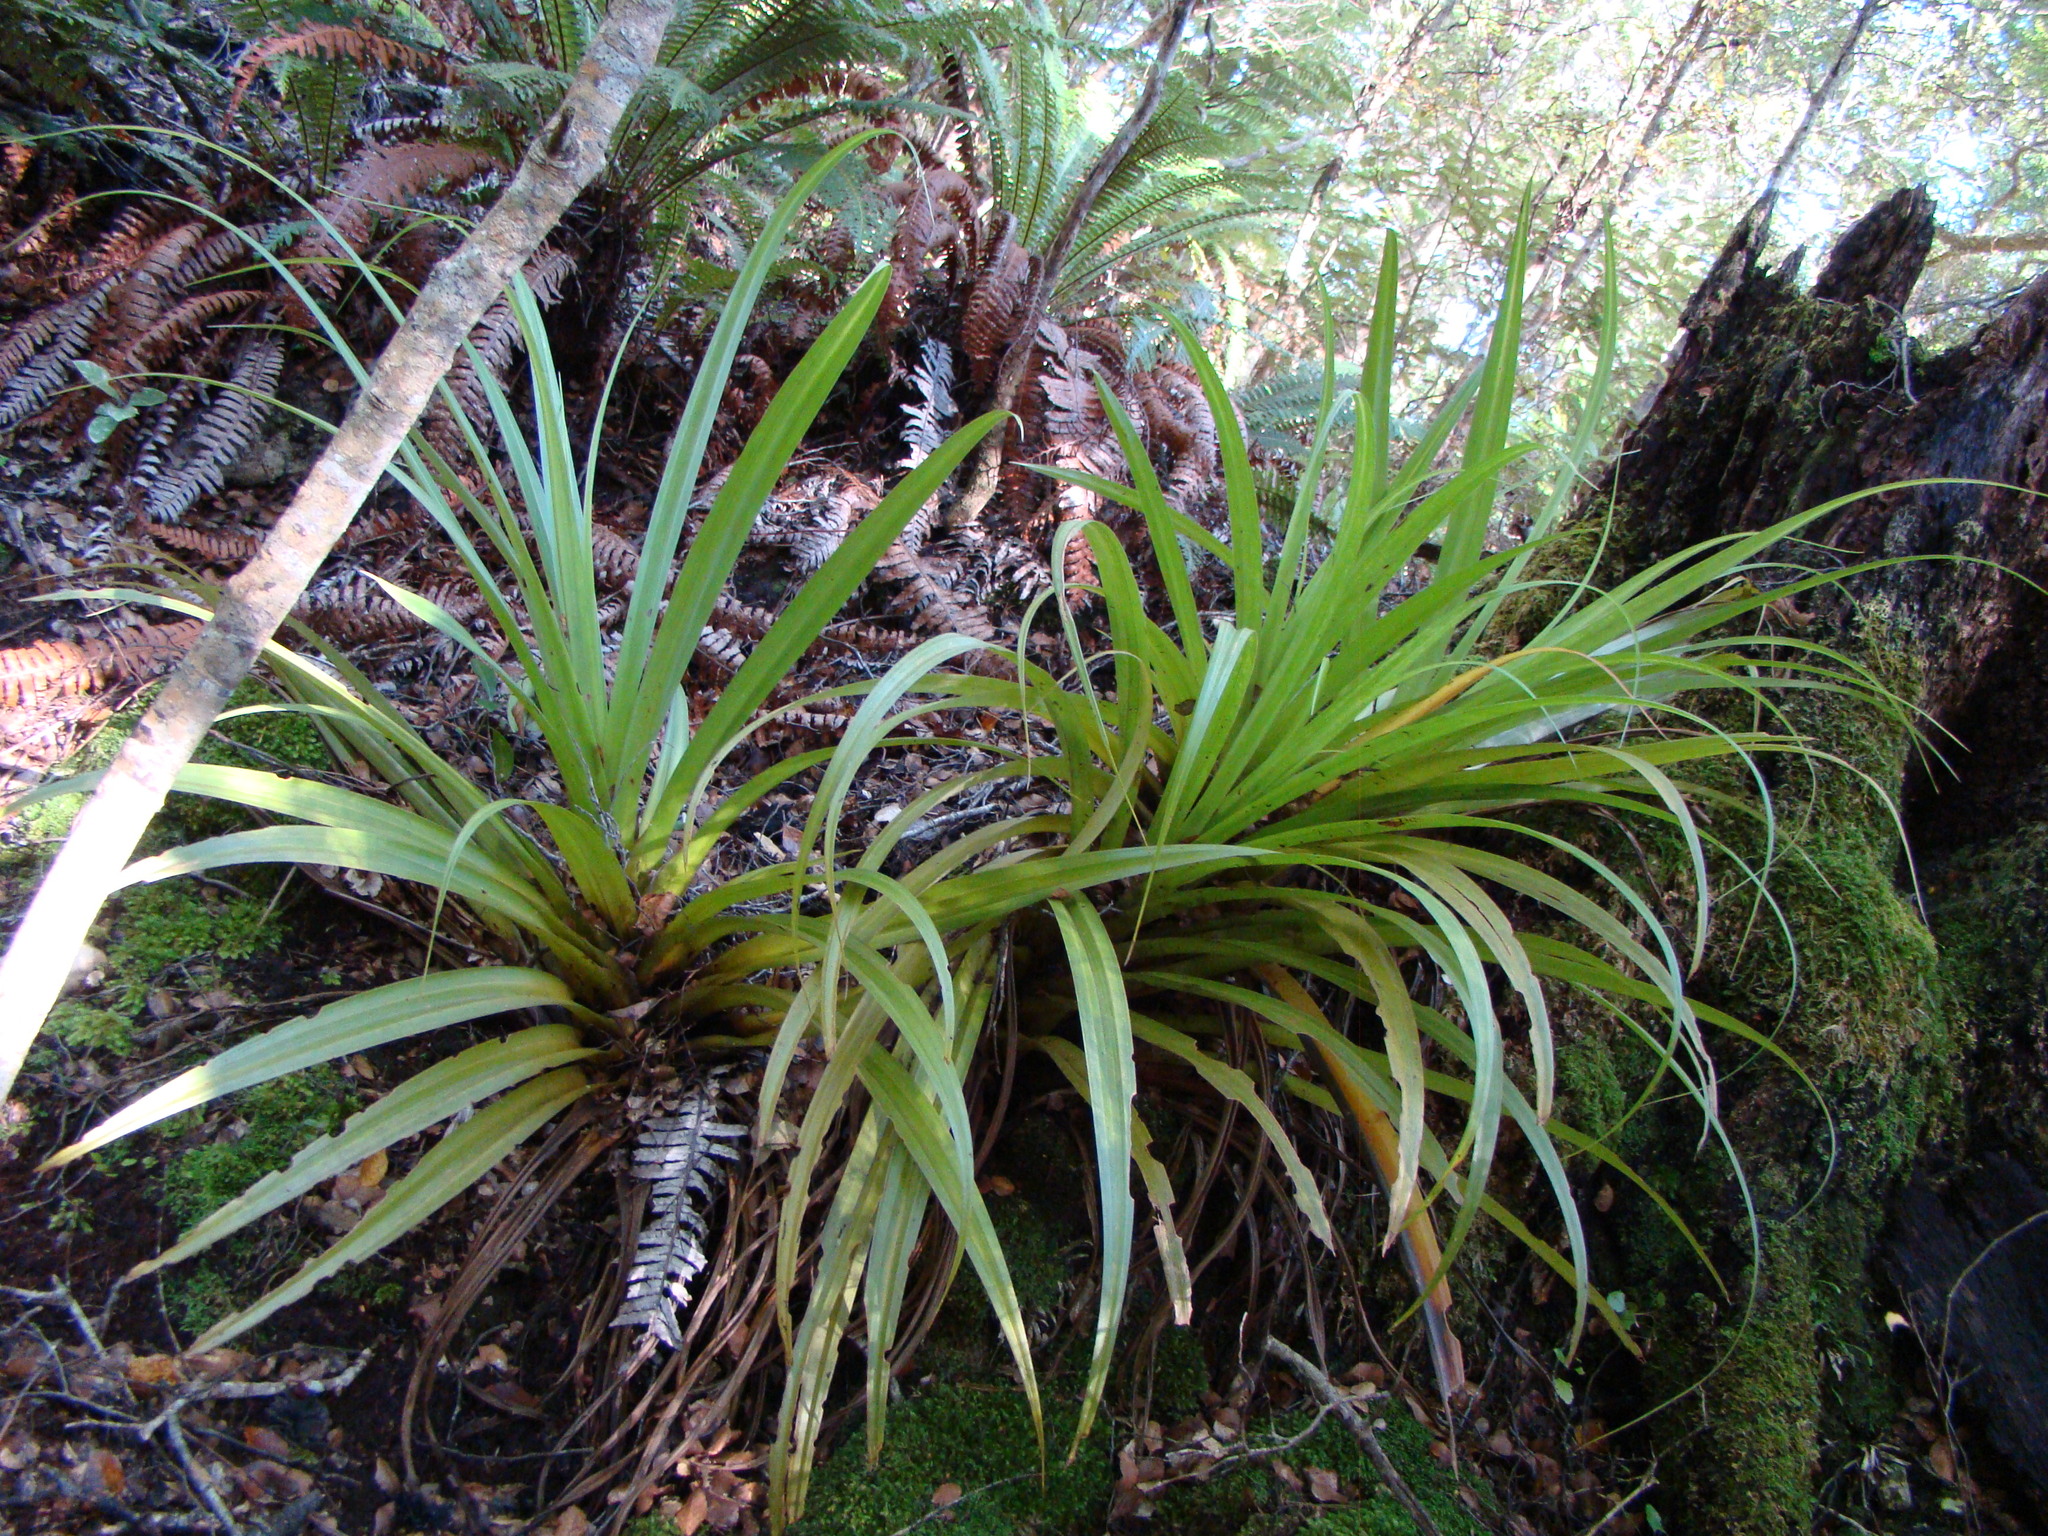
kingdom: Plantae
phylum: Tracheophyta
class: Liliopsida
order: Asparagales
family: Asteliaceae
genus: Astelia
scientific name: Astelia hastata
